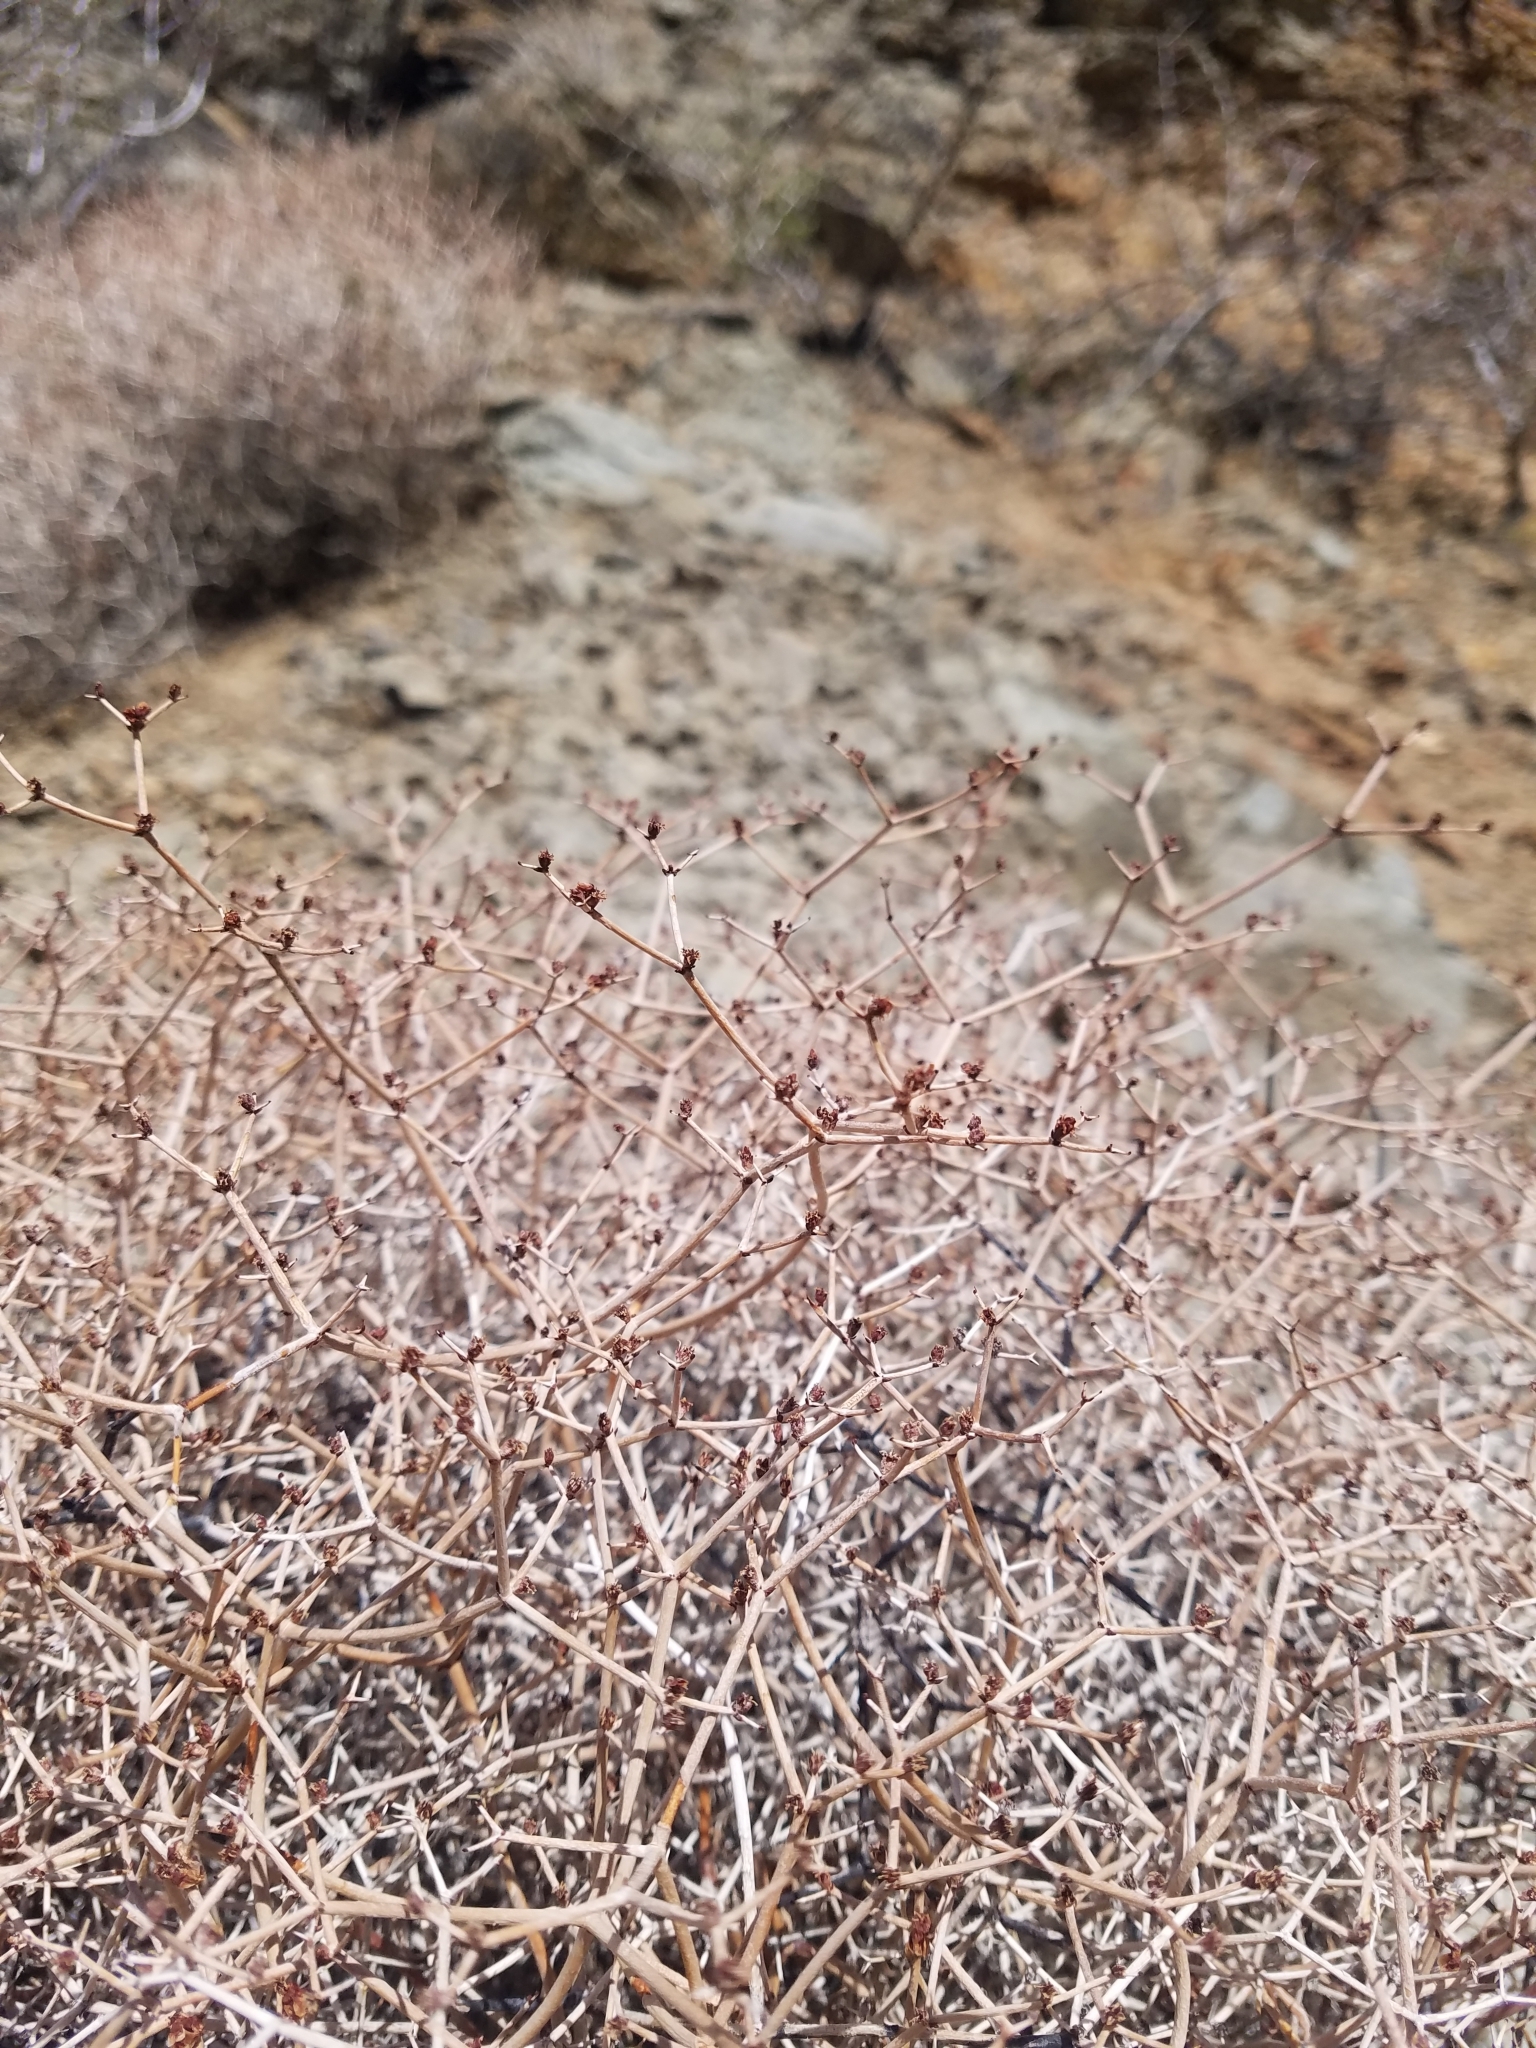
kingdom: Plantae
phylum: Tracheophyta
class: Magnoliopsida
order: Caryophyllales
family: Polygonaceae
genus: Eriogonum
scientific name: Eriogonum heermannii
